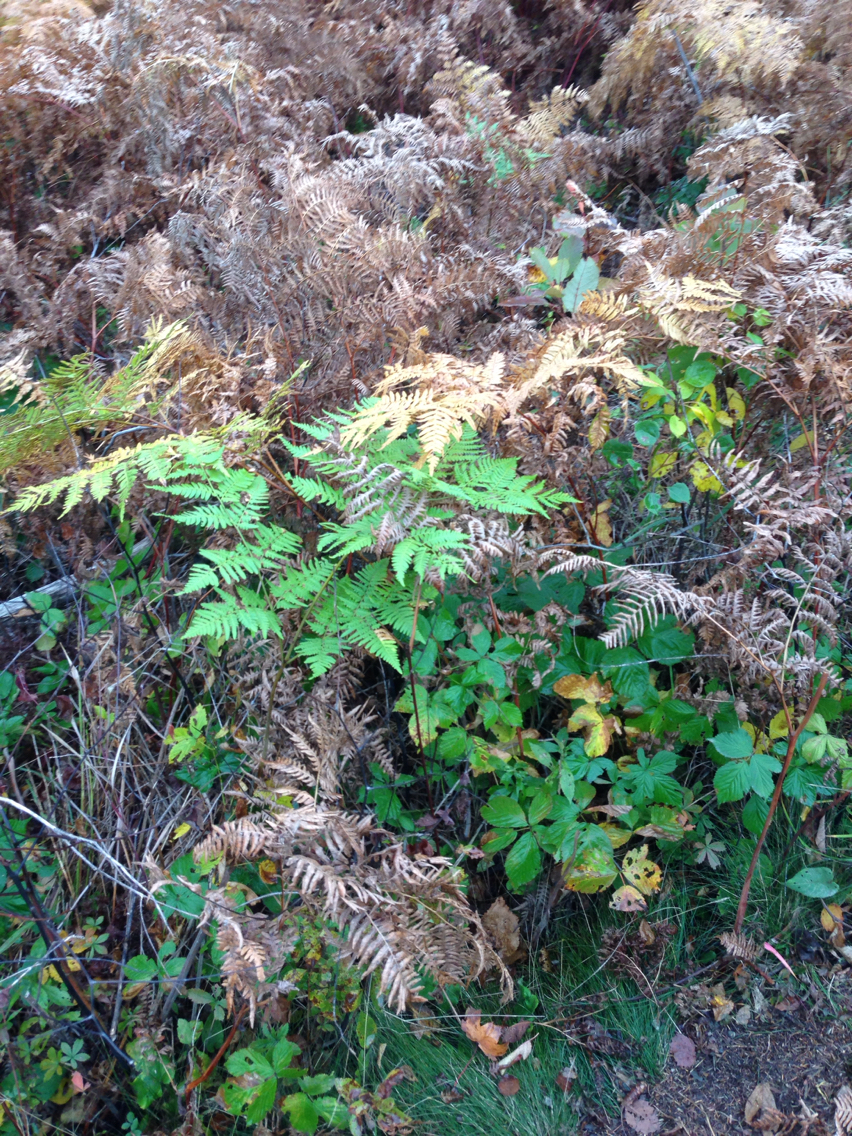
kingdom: Plantae
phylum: Tracheophyta
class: Polypodiopsida
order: Polypodiales
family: Dennstaedtiaceae
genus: Pteridium
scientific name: Pteridium aquilinum
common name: Bracken
